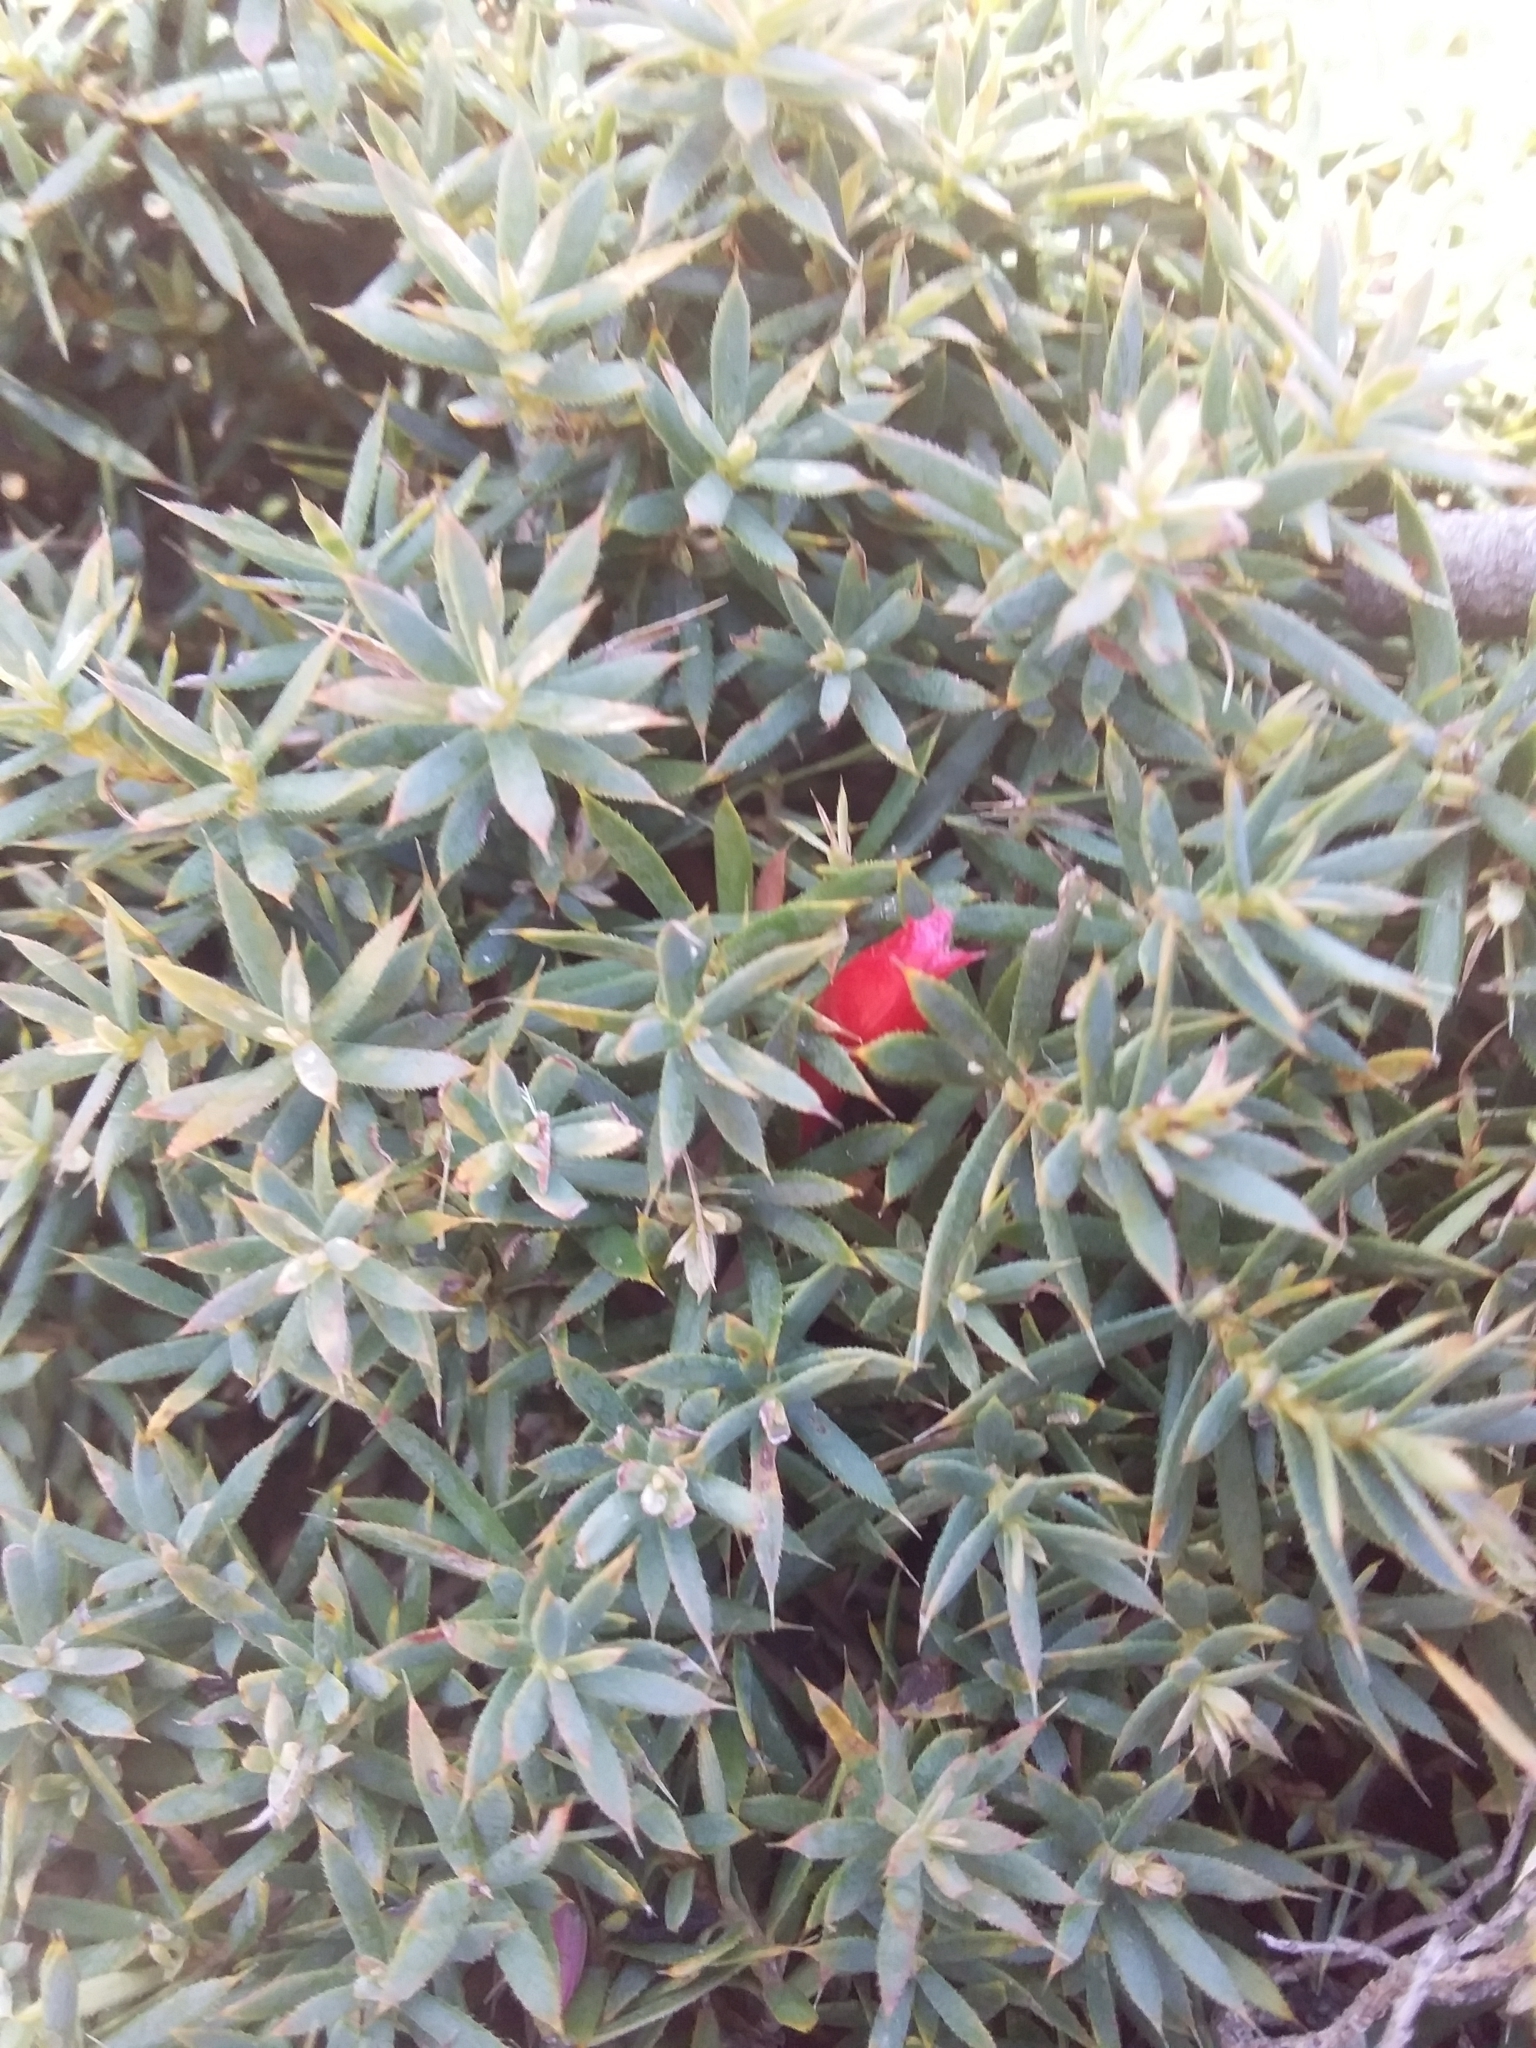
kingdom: Plantae
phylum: Tracheophyta
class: Magnoliopsida
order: Ericales
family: Ericaceae
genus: Styphelia
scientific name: Styphelia humifusa
